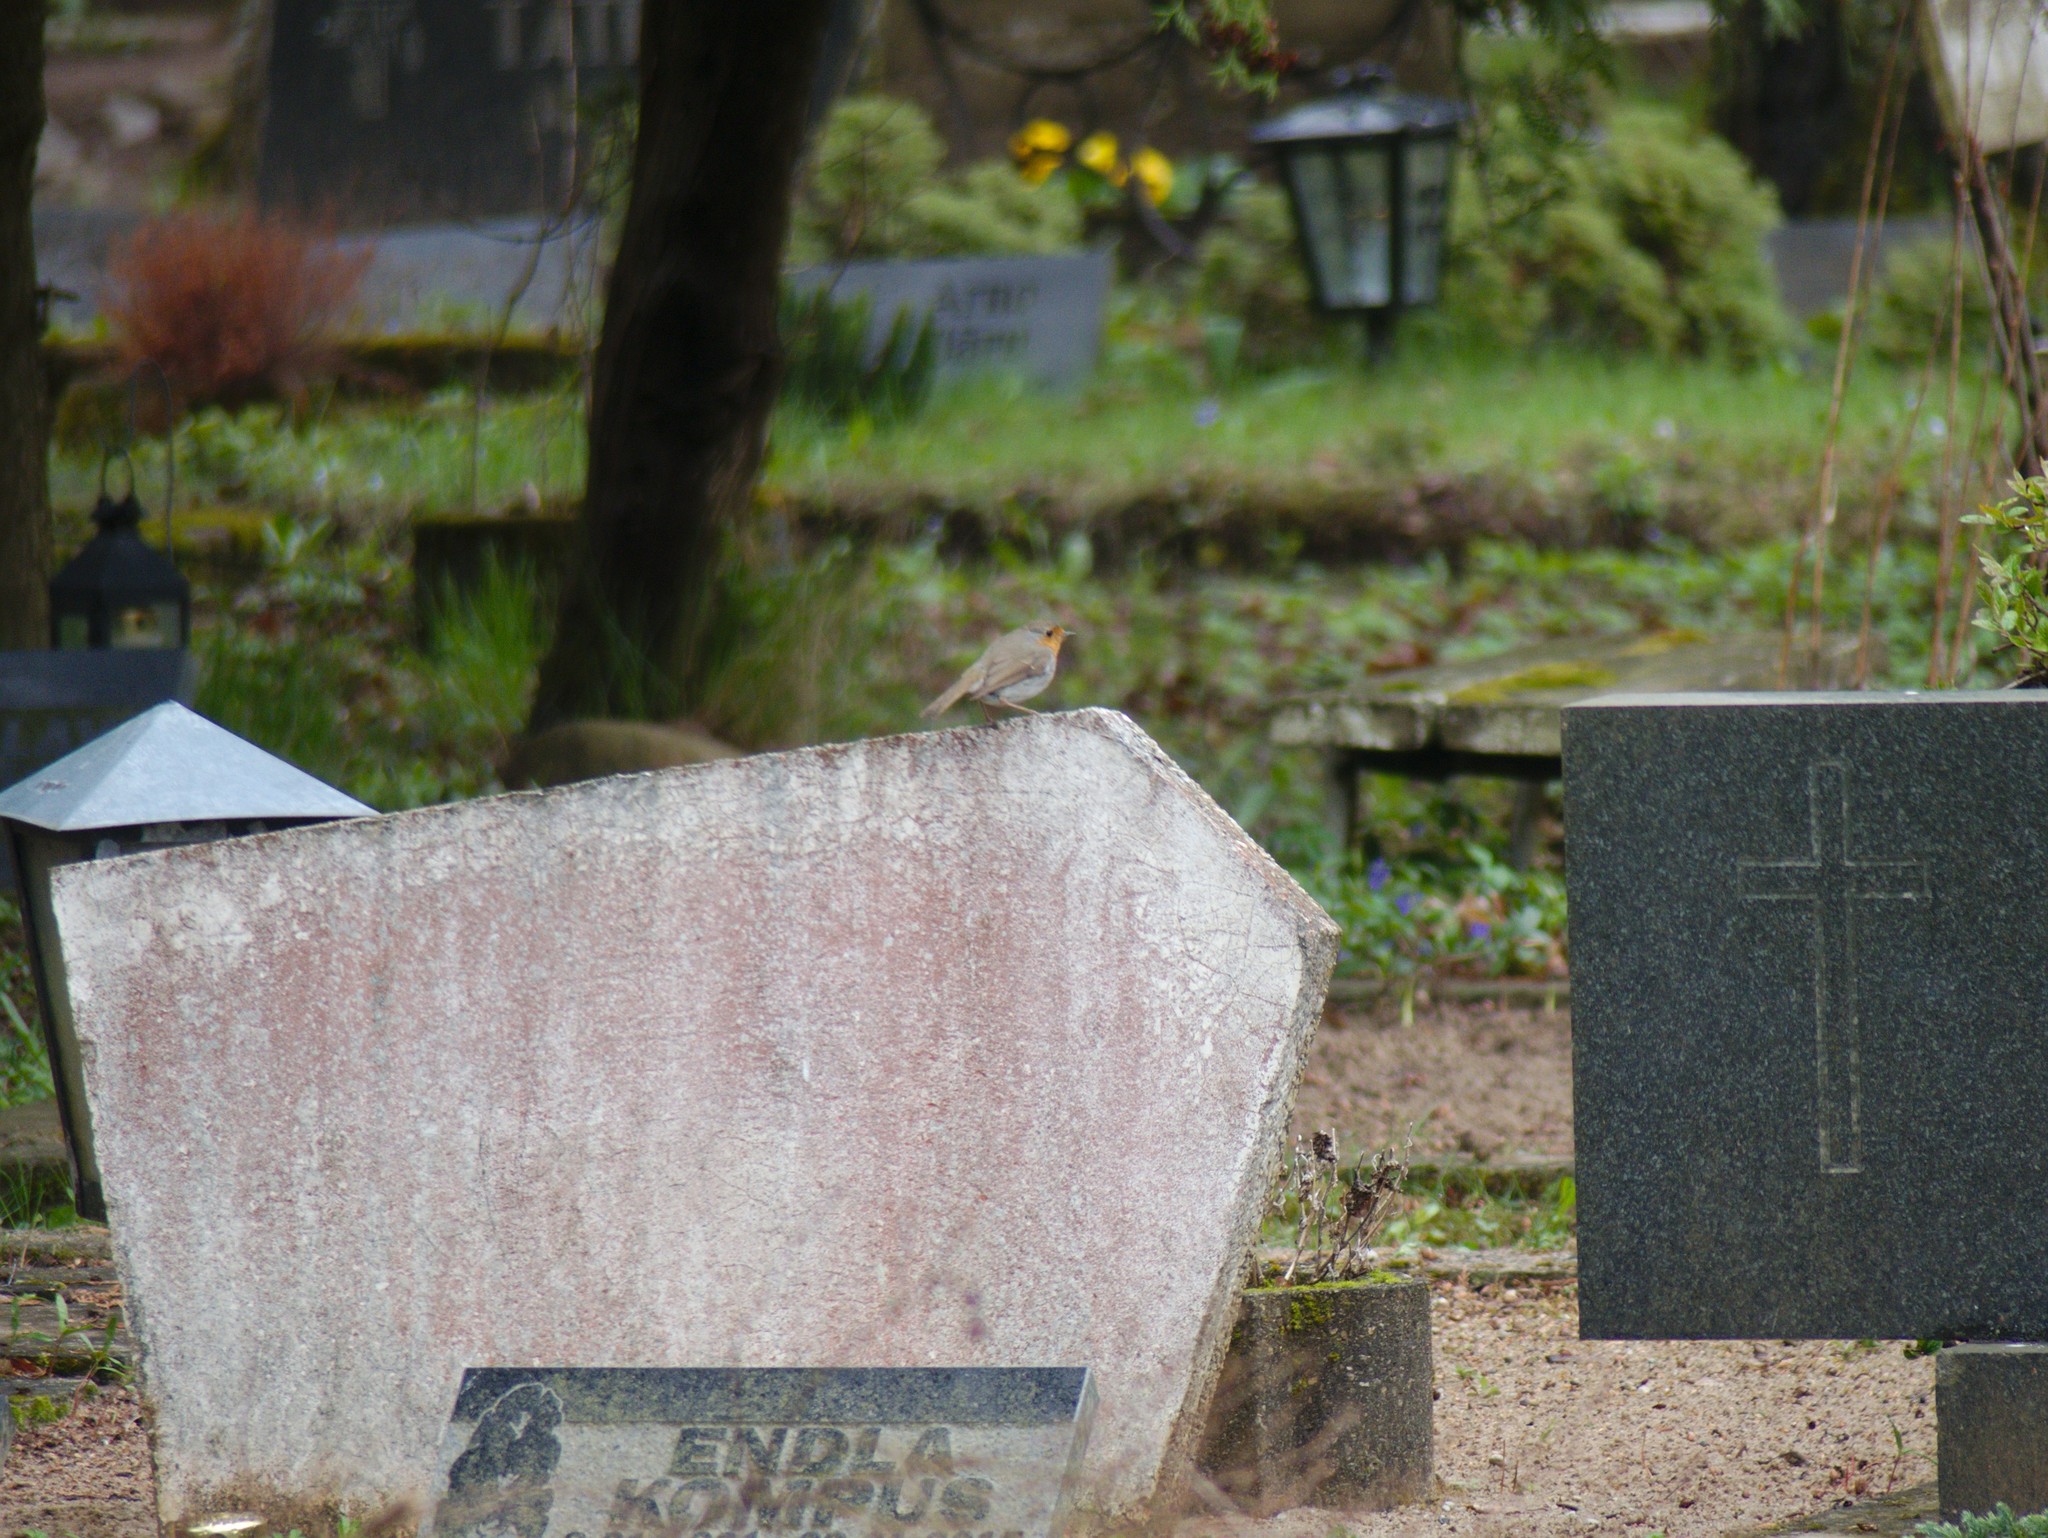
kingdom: Animalia
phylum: Chordata
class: Aves
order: Passeriformes
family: Muscicapidae
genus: Erithacus
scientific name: Erithacus rubecula
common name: European robin
